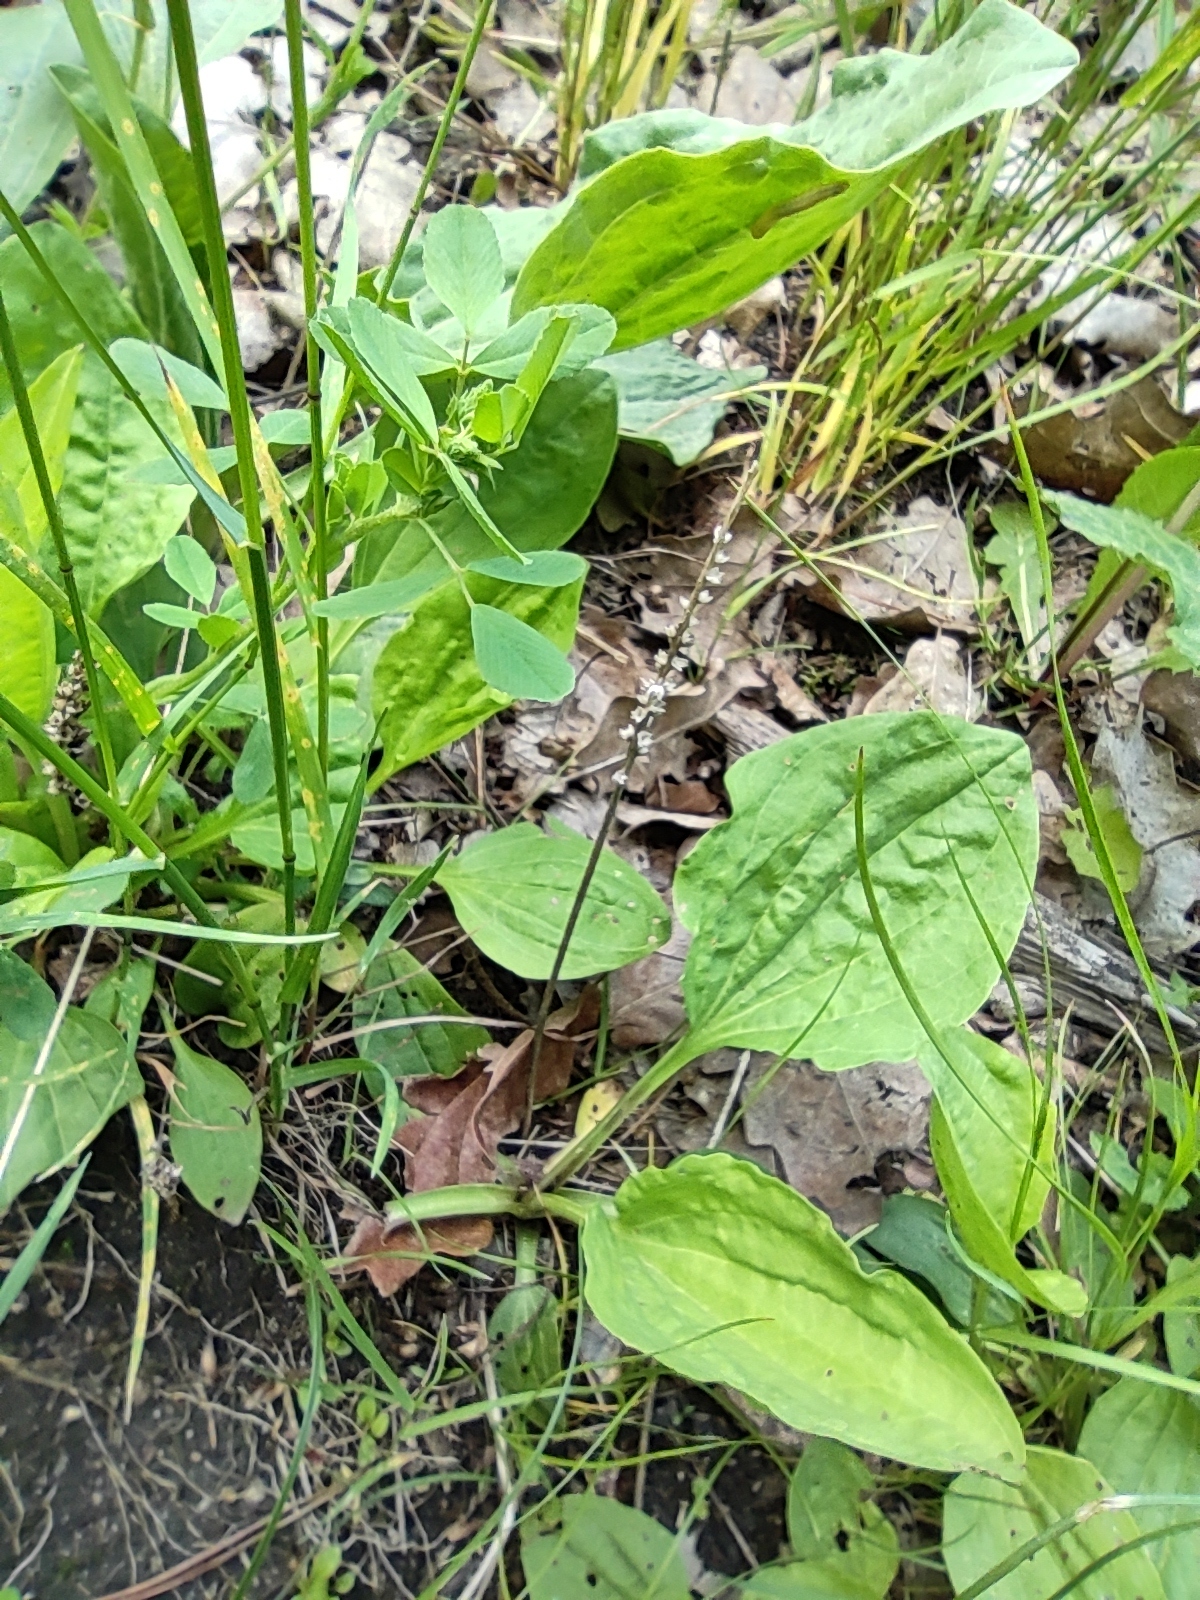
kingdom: Plantae
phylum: Tracheophyta
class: Magnoliopsida
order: Lamiales
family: Plantaginaceae
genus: Plantago
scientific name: Plantago major
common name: Common plantain
